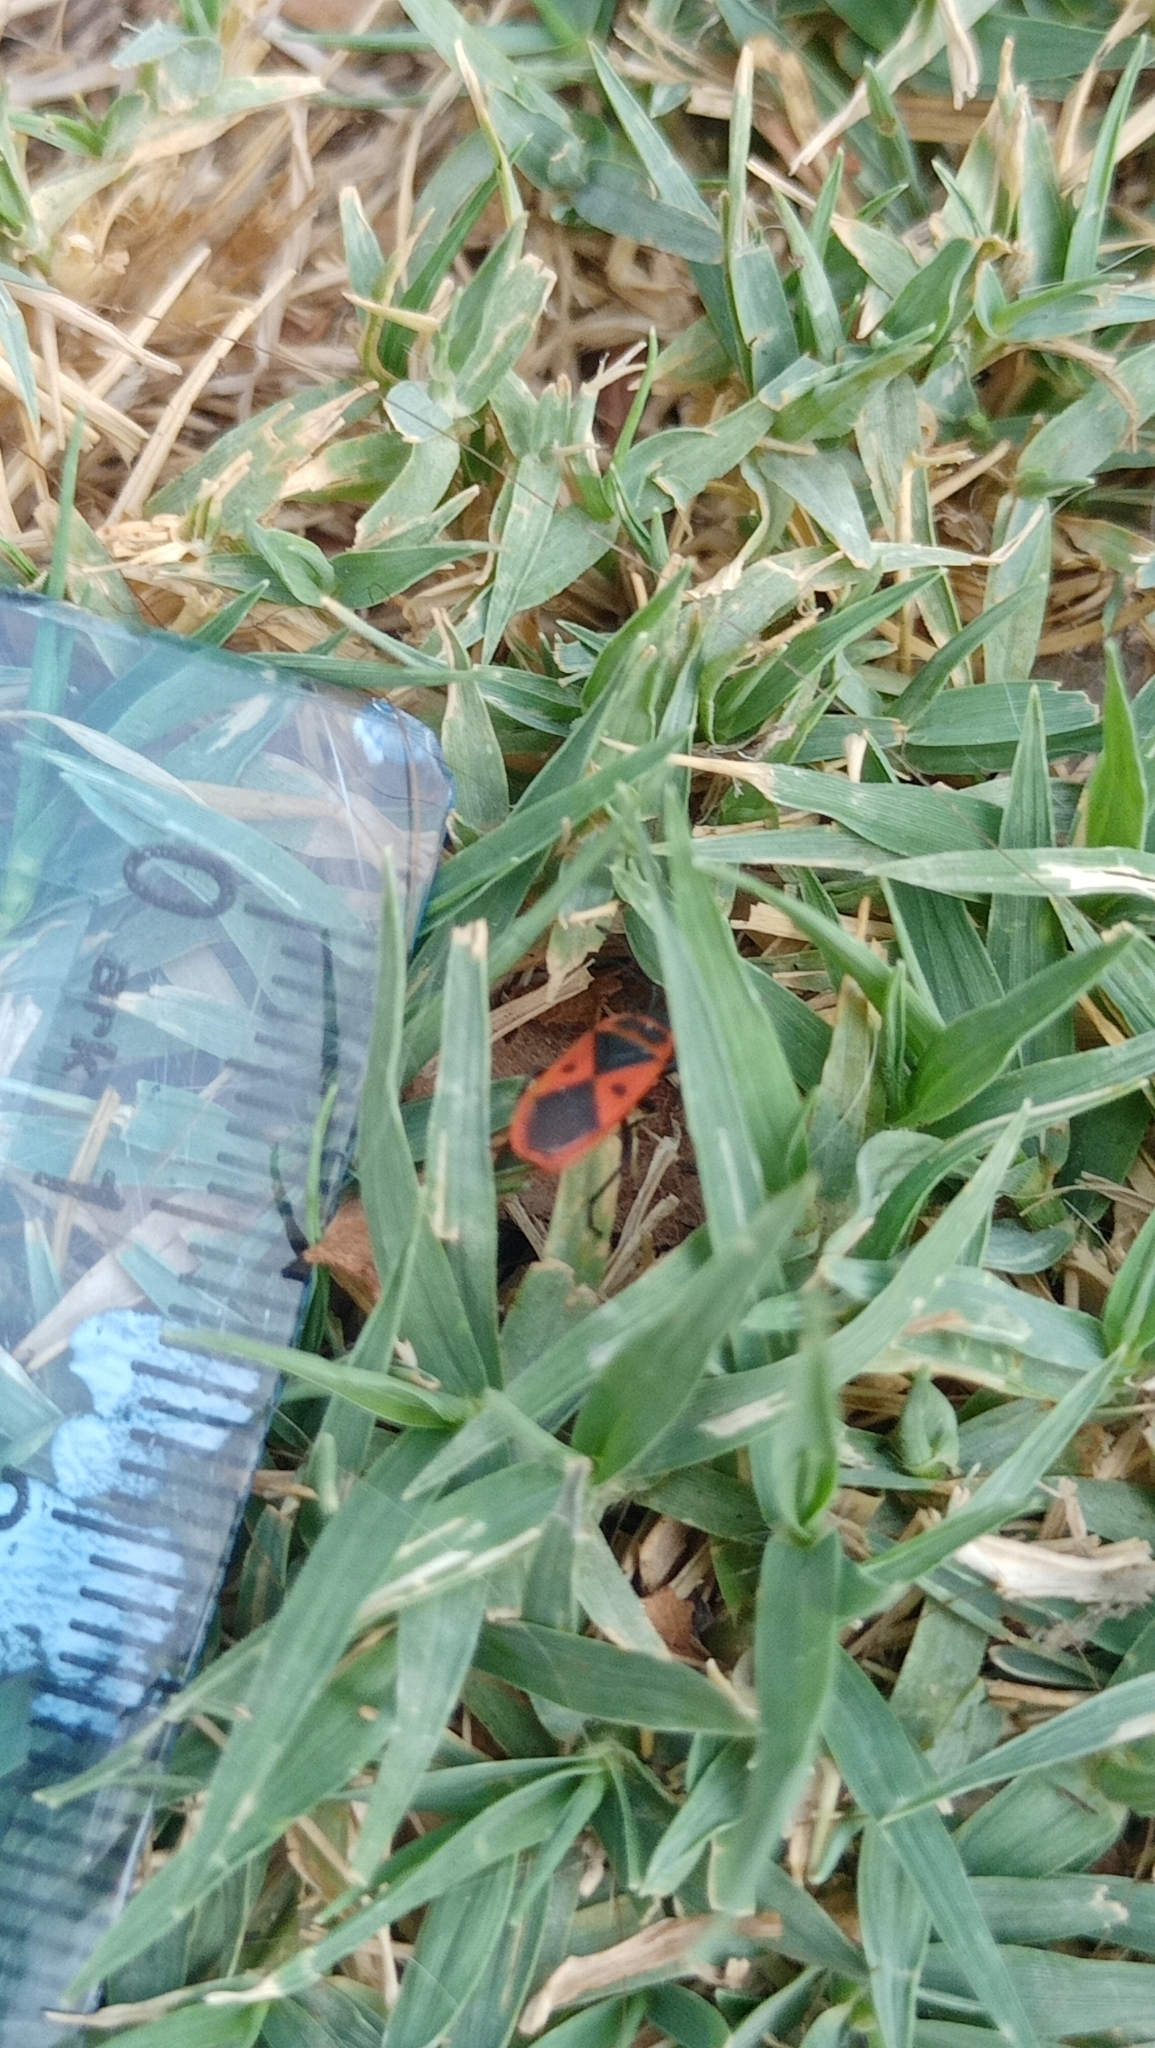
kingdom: Animalia
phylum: Arthropoda
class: Insecta
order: Hemiptera
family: Pyrrhocoridae
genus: Scantius
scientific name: Scantius aegyptius
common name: Red bug
